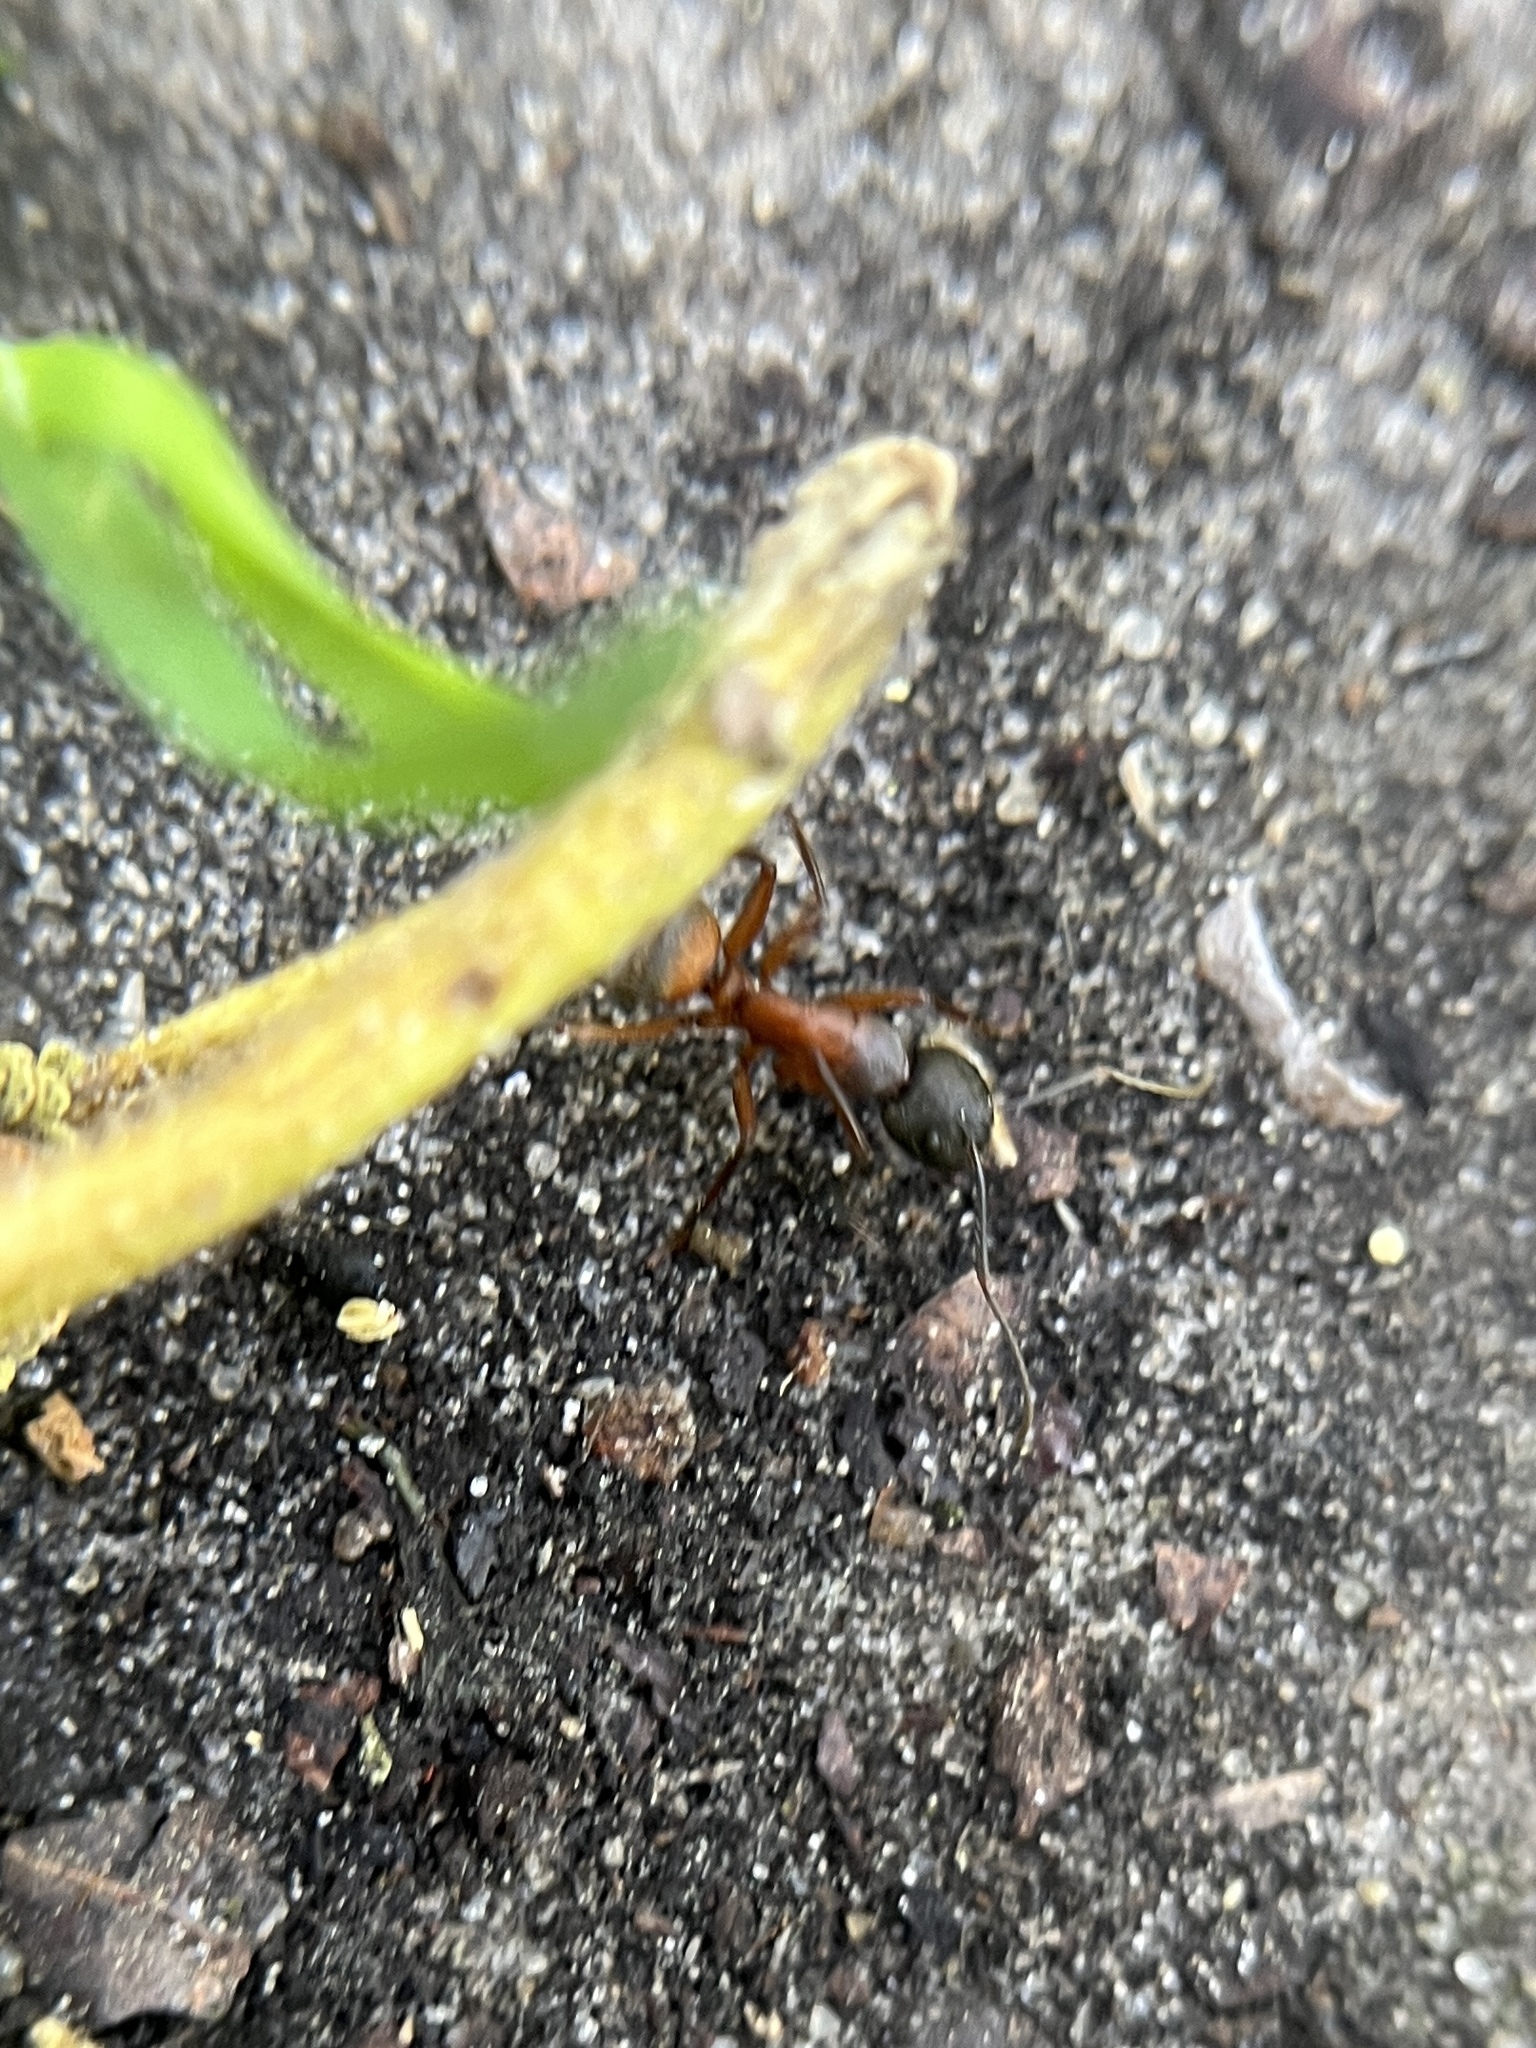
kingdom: Animalia
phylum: Arthropoda
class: Insecta
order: Hymenoptera
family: Formicidae
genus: Camponotus
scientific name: Camponotus chromaiodes
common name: Red carpenter ant
